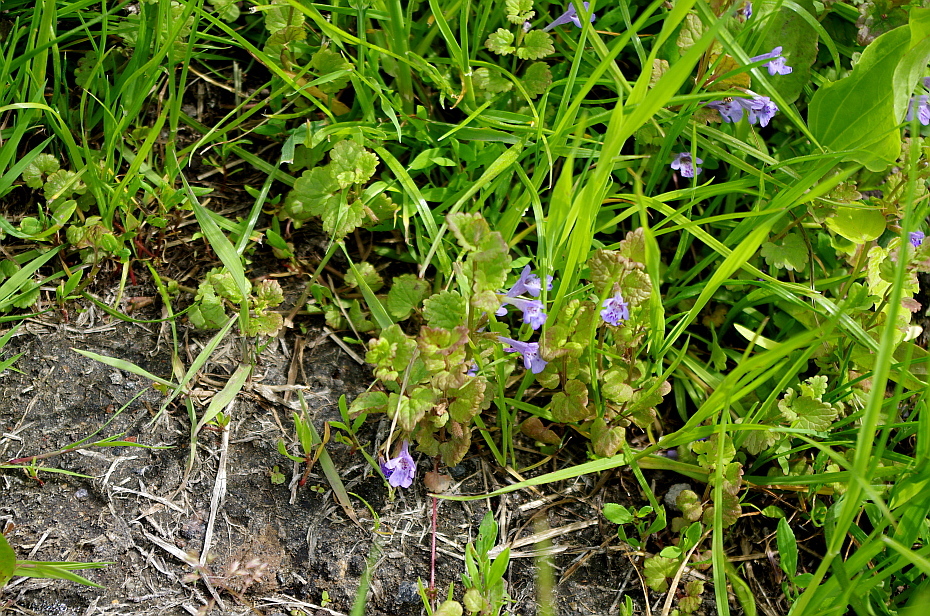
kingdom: Plantae
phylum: Tracheophyta
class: Magnoliopsida
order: Lamiales
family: Lamiaceae
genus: Glechoma
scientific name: Glechoma hederacea
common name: Ground ivy
